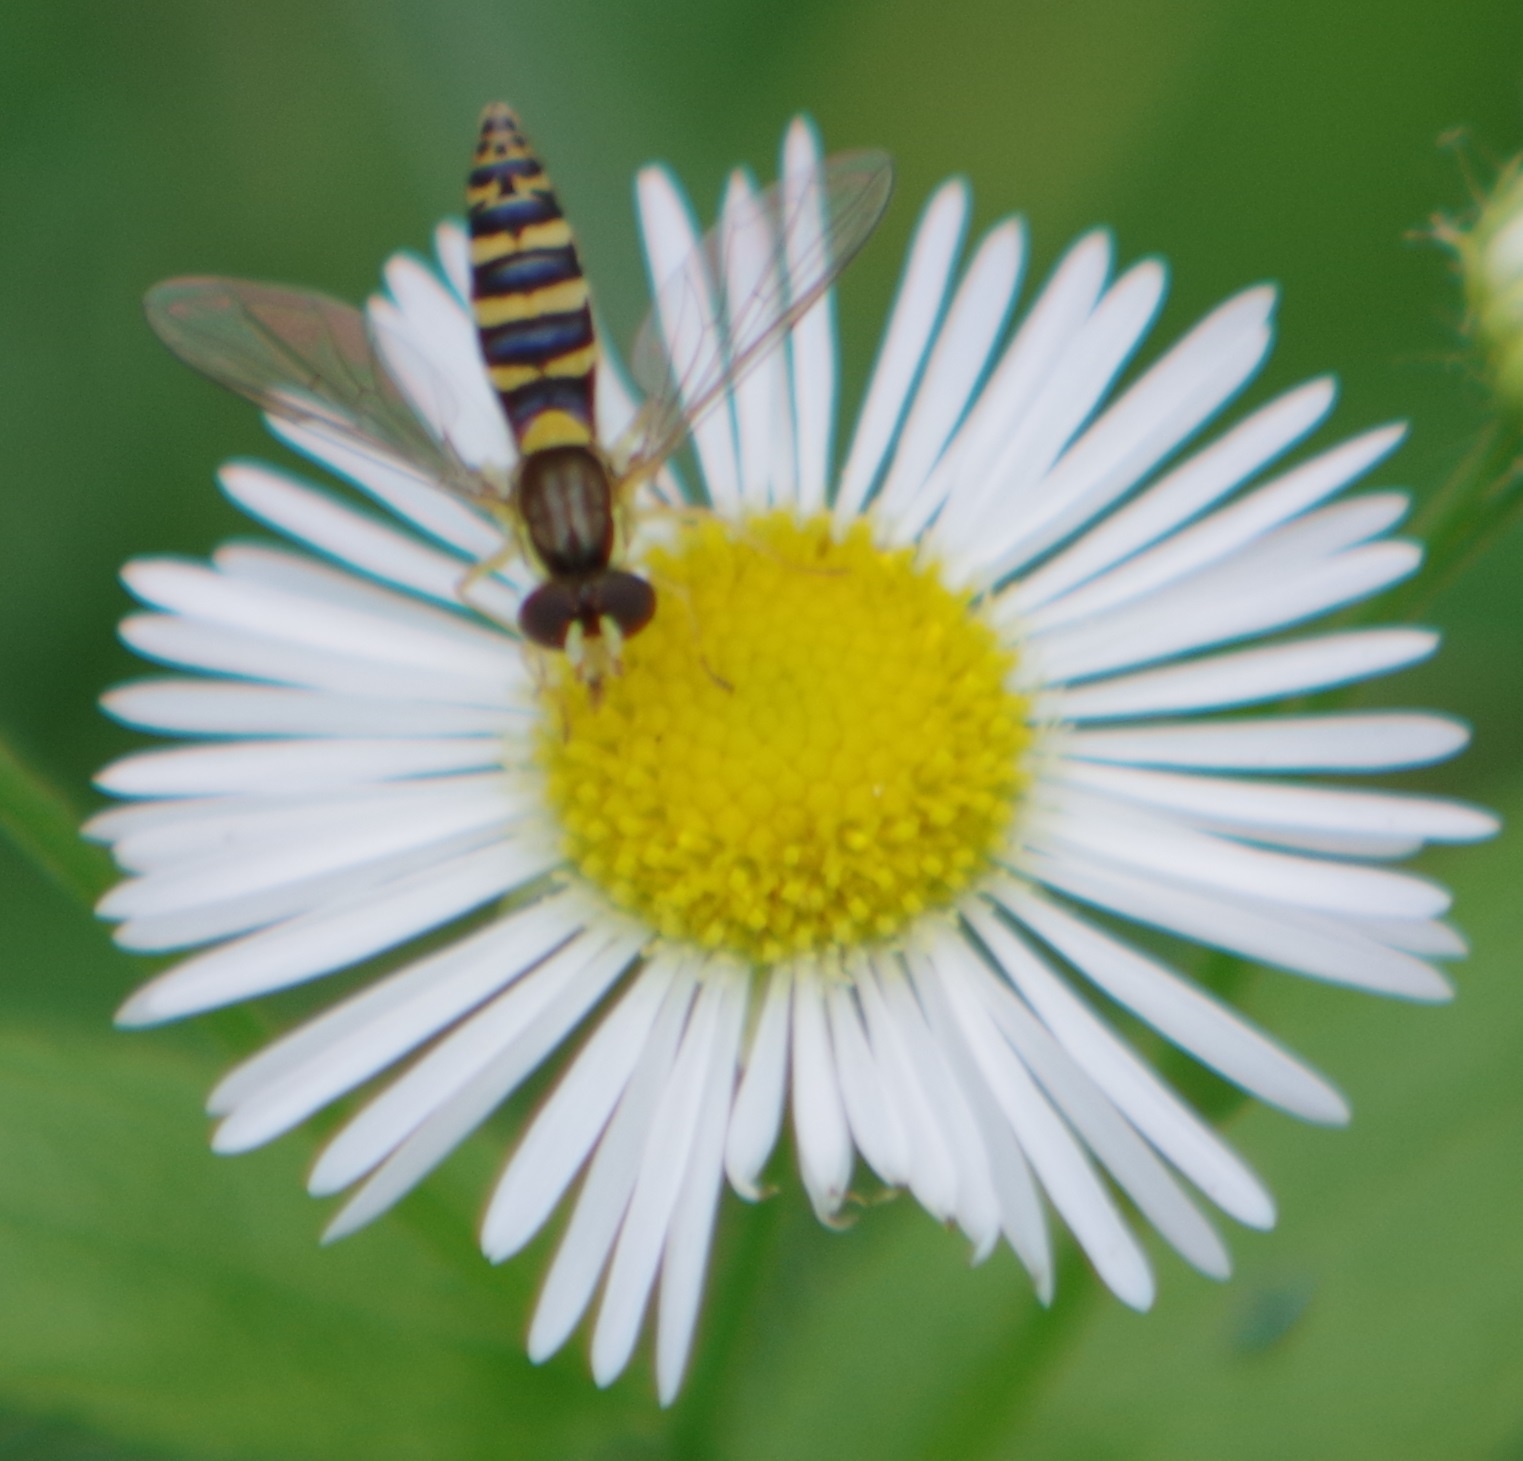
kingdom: Animalia
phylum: Arthropoda
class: Insecta
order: Diptera
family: Syrphidae
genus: Sphaerophoria
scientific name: Sphaerophoria
